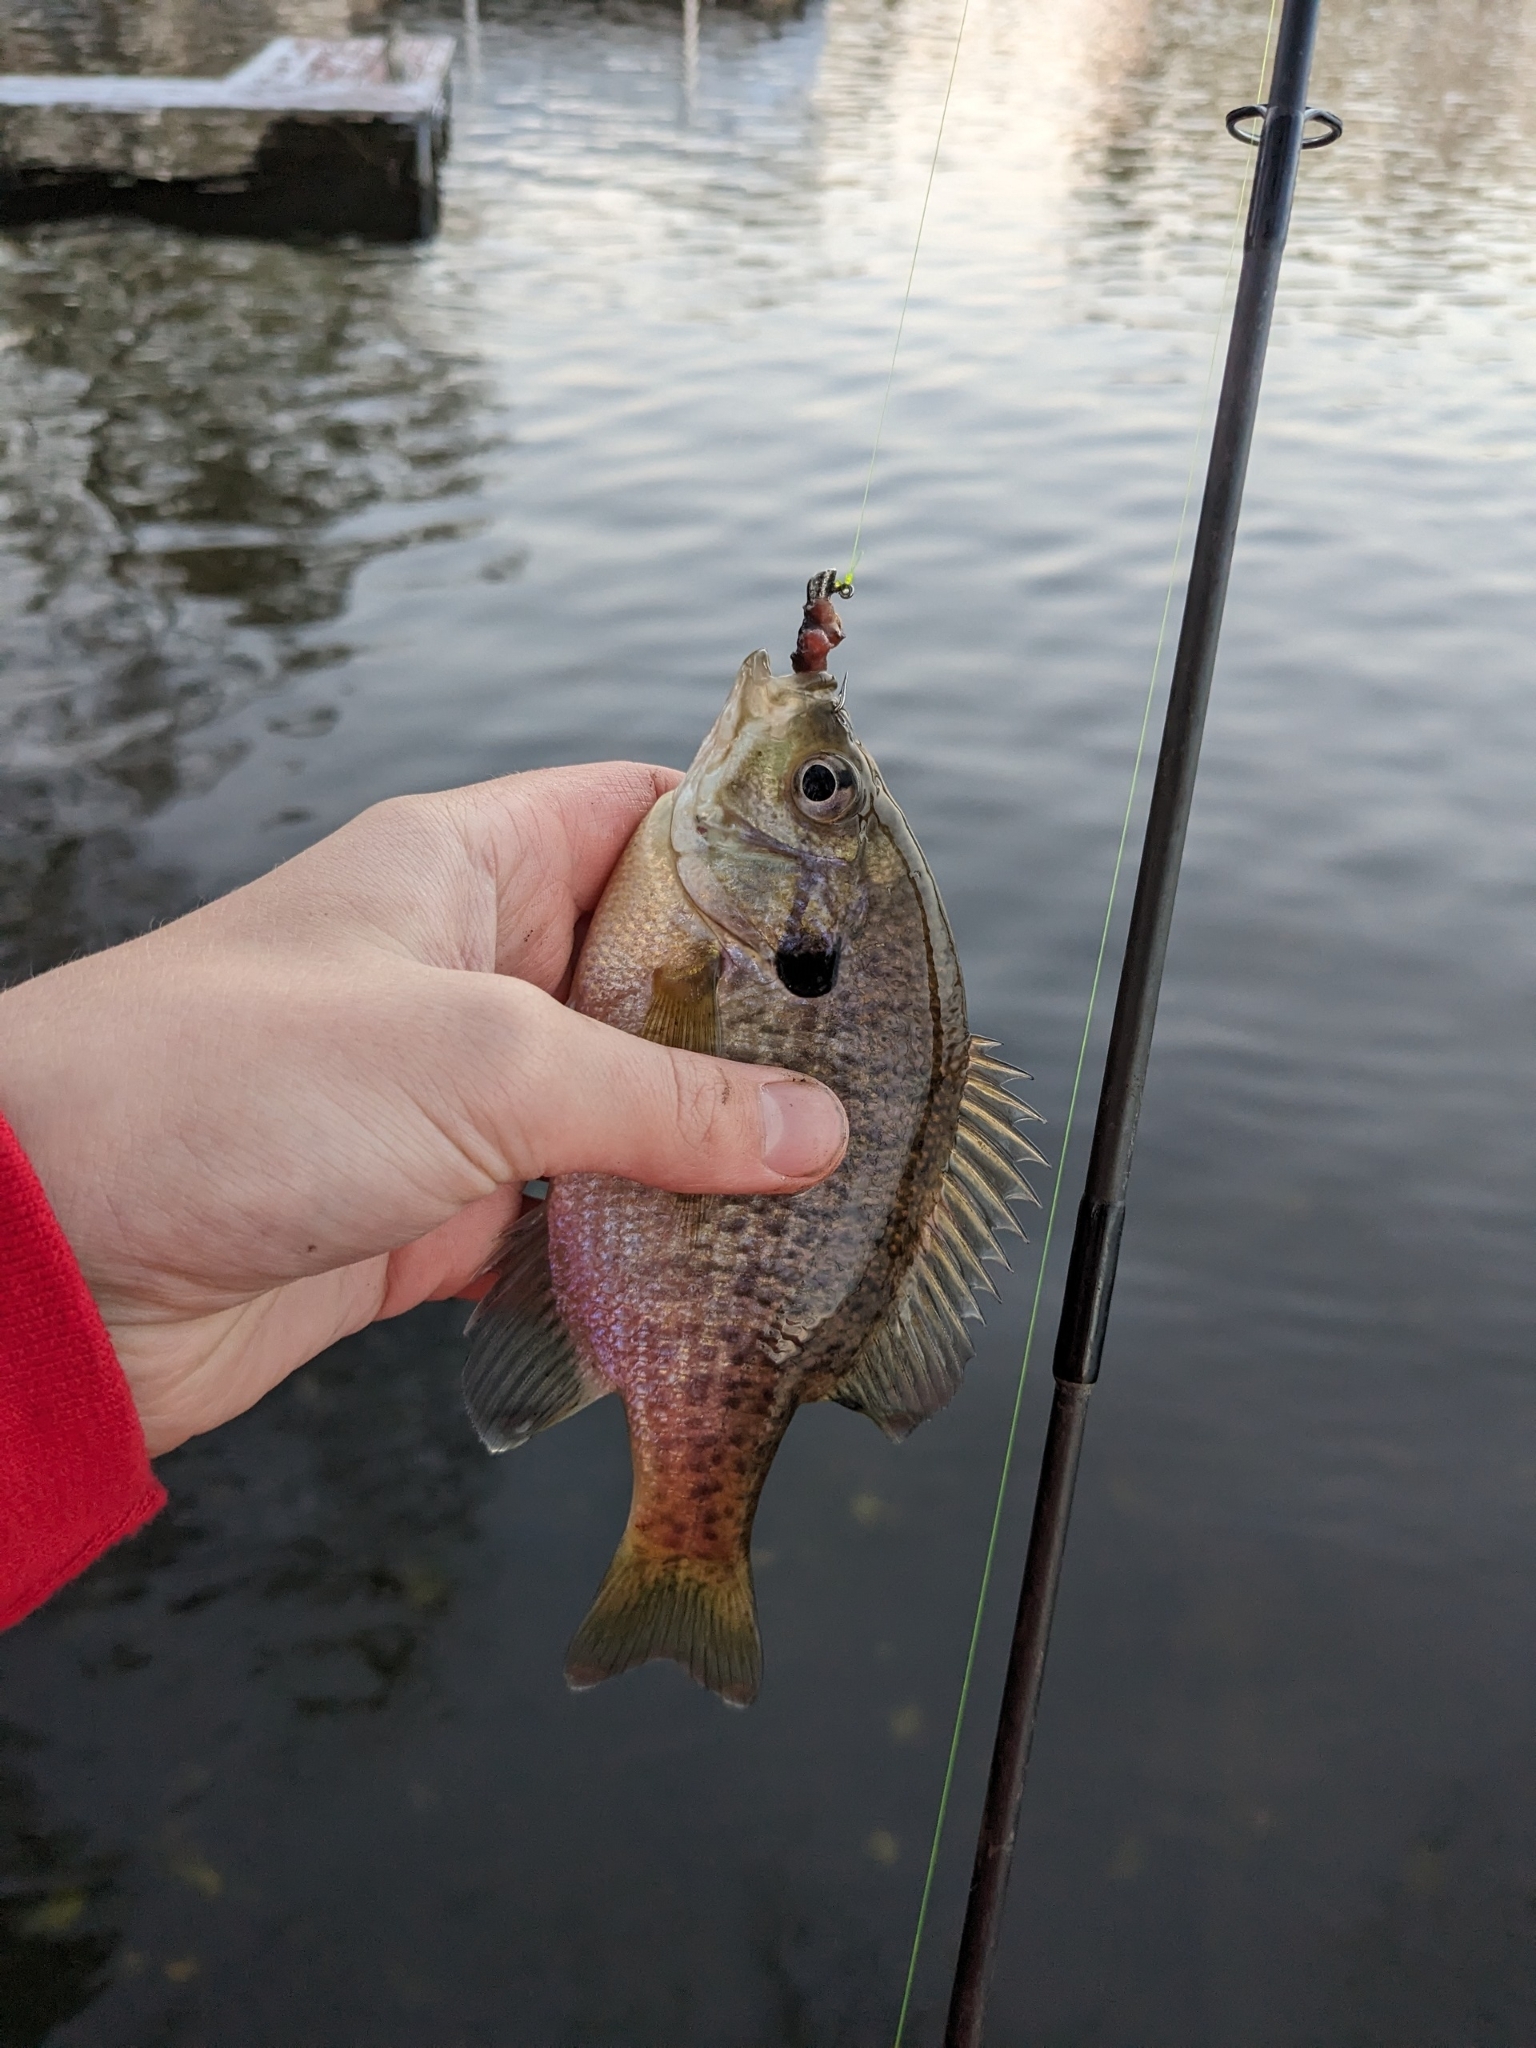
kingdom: Animalia
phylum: Chordata
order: Perciformes
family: Centrarchidae
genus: Lepomis
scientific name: Lepomis macrochirus
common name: Bluegill
